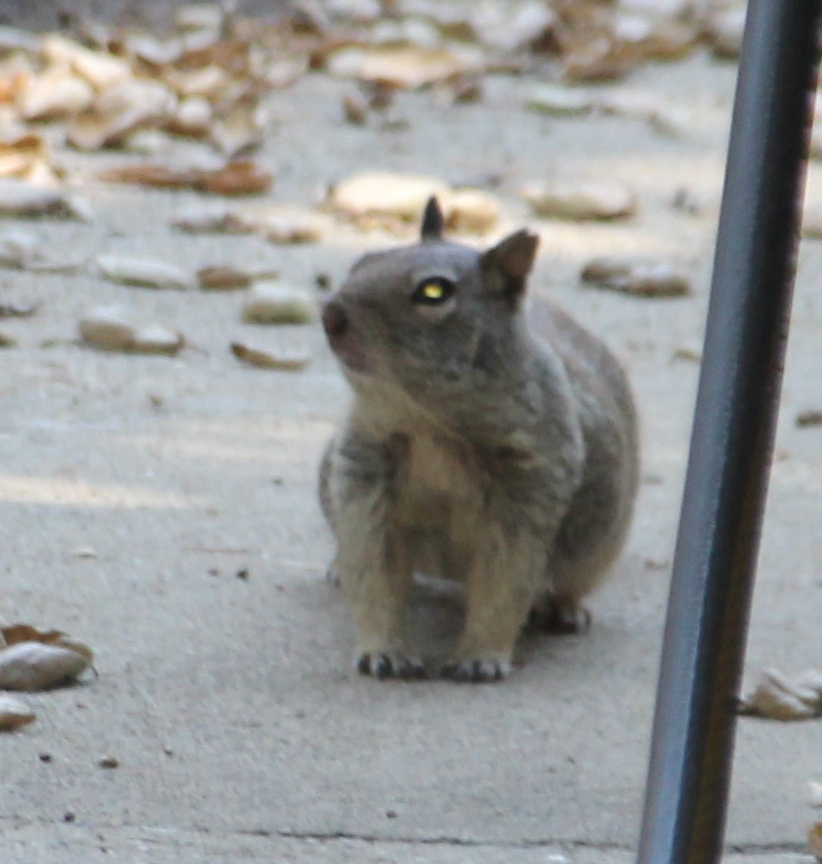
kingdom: Animalia
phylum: Chordata
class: Mammalia
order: Rodentia
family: Sciuridae
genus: Otospermophilus
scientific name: Otospermophilus beecheyi
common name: California ground squirrel
